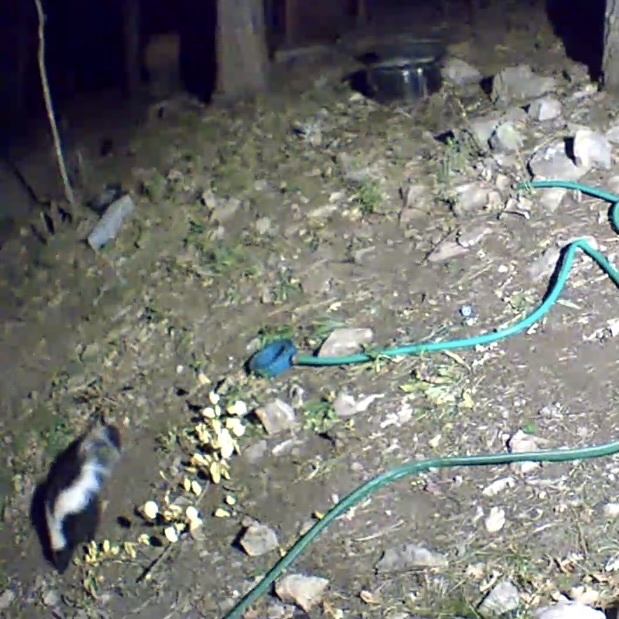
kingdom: Animalia
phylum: Chordata
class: Mammalia
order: Carnivora
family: Mephitidae
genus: Mephitis
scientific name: Mephitis mephitis
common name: Striped skunk
